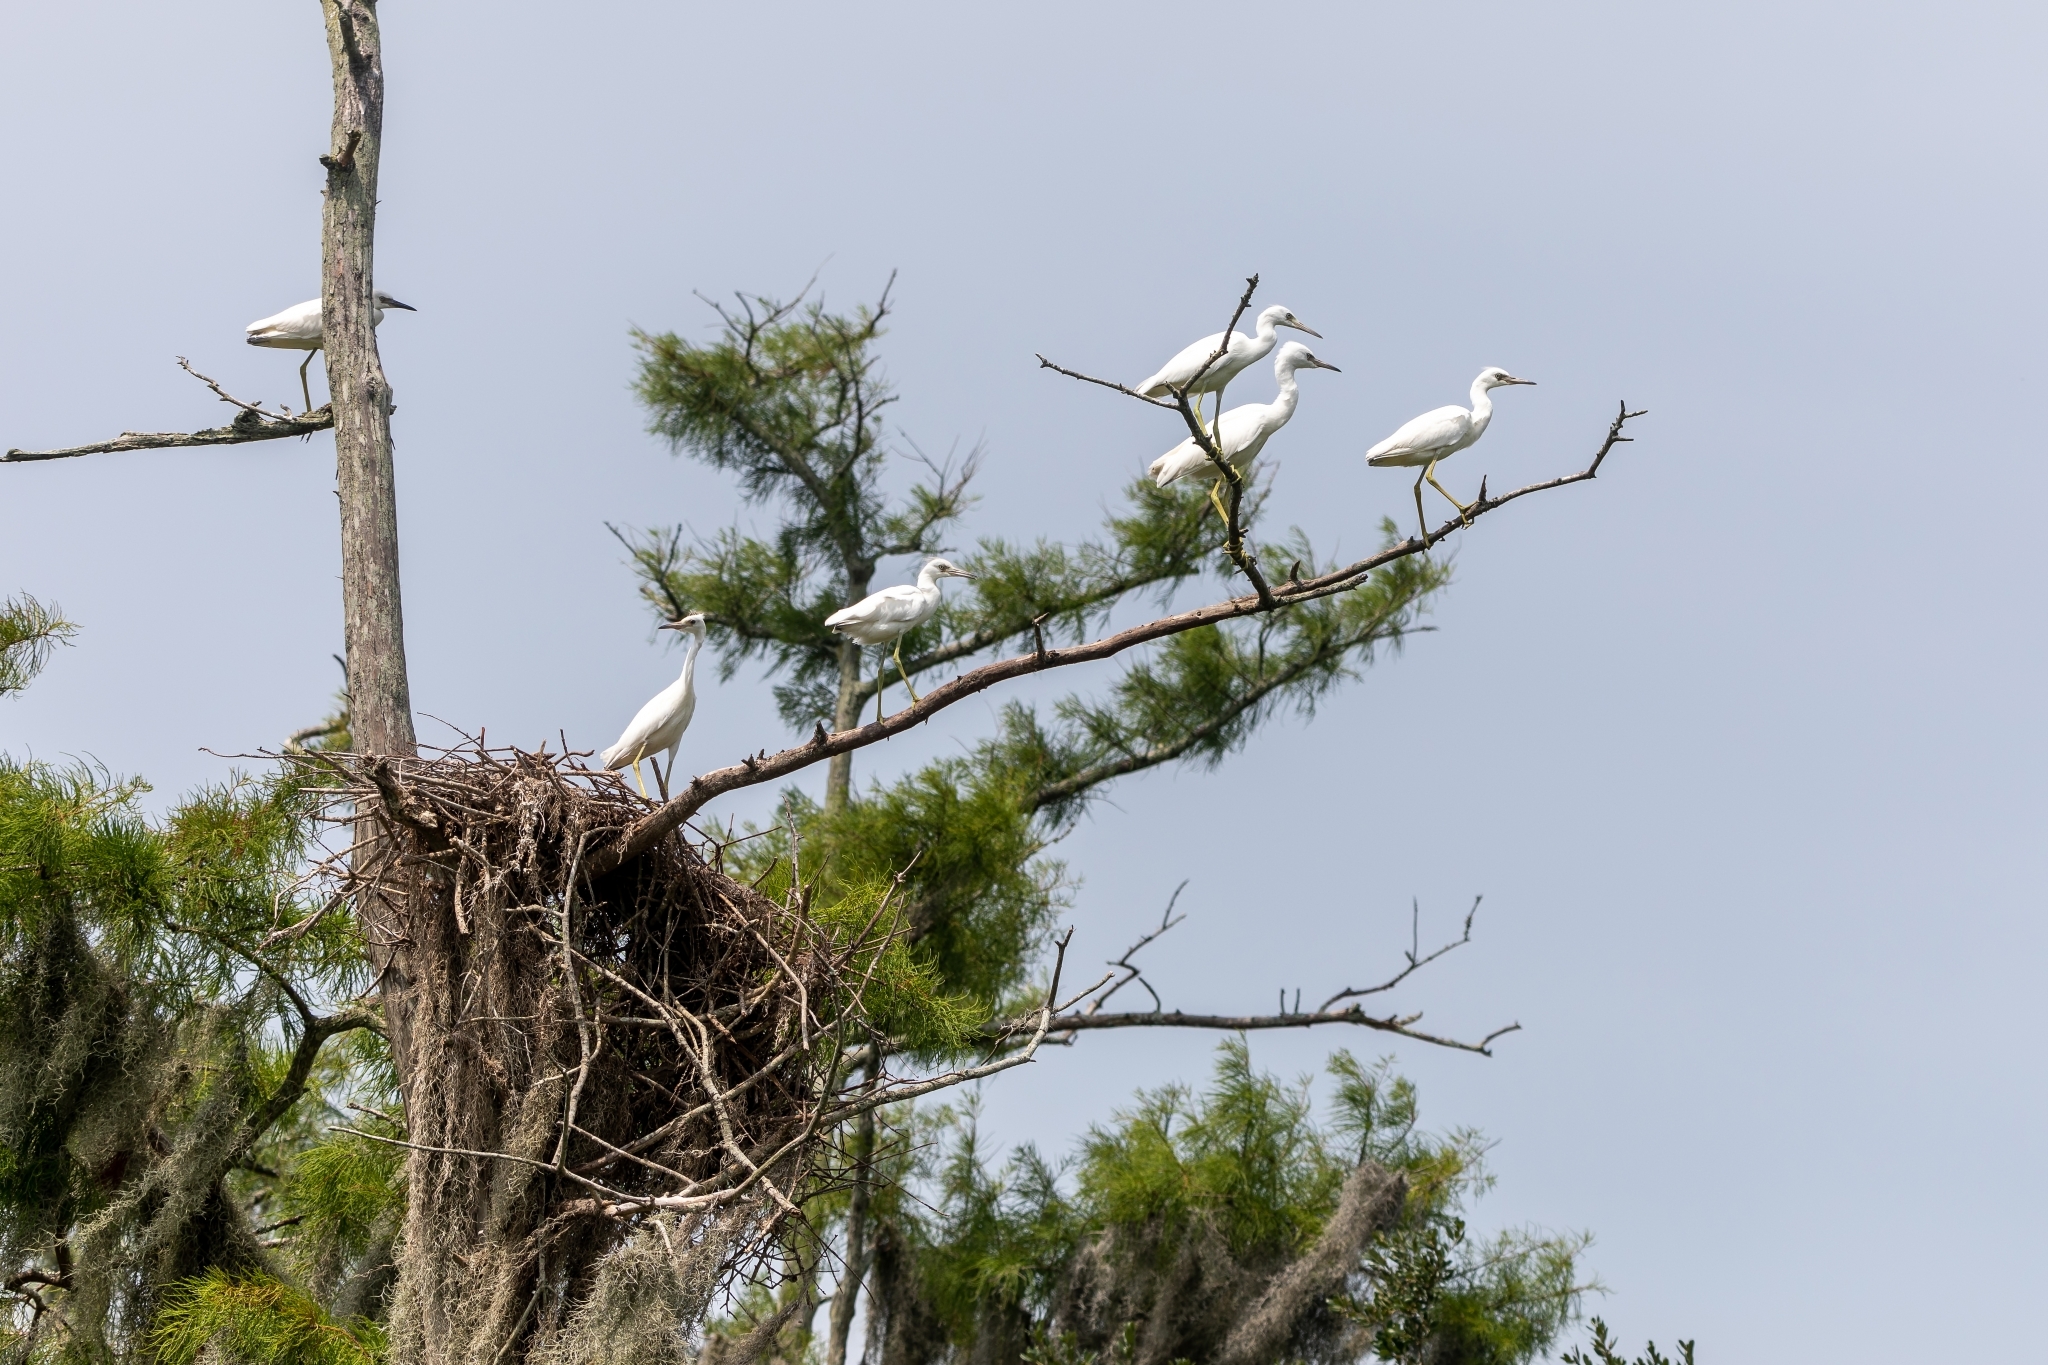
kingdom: Animalia
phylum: Chordata
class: Aves
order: Pelecaniformes
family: Ardeidae
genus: Egretta
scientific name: Egretta caerulea
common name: Little blue heron
